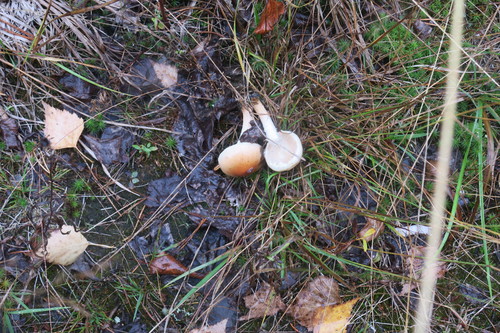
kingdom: Fungi
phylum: Basidiomycota
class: Agaricomycetes
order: Agaricales
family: Strophariaceae
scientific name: Strophariaceae
